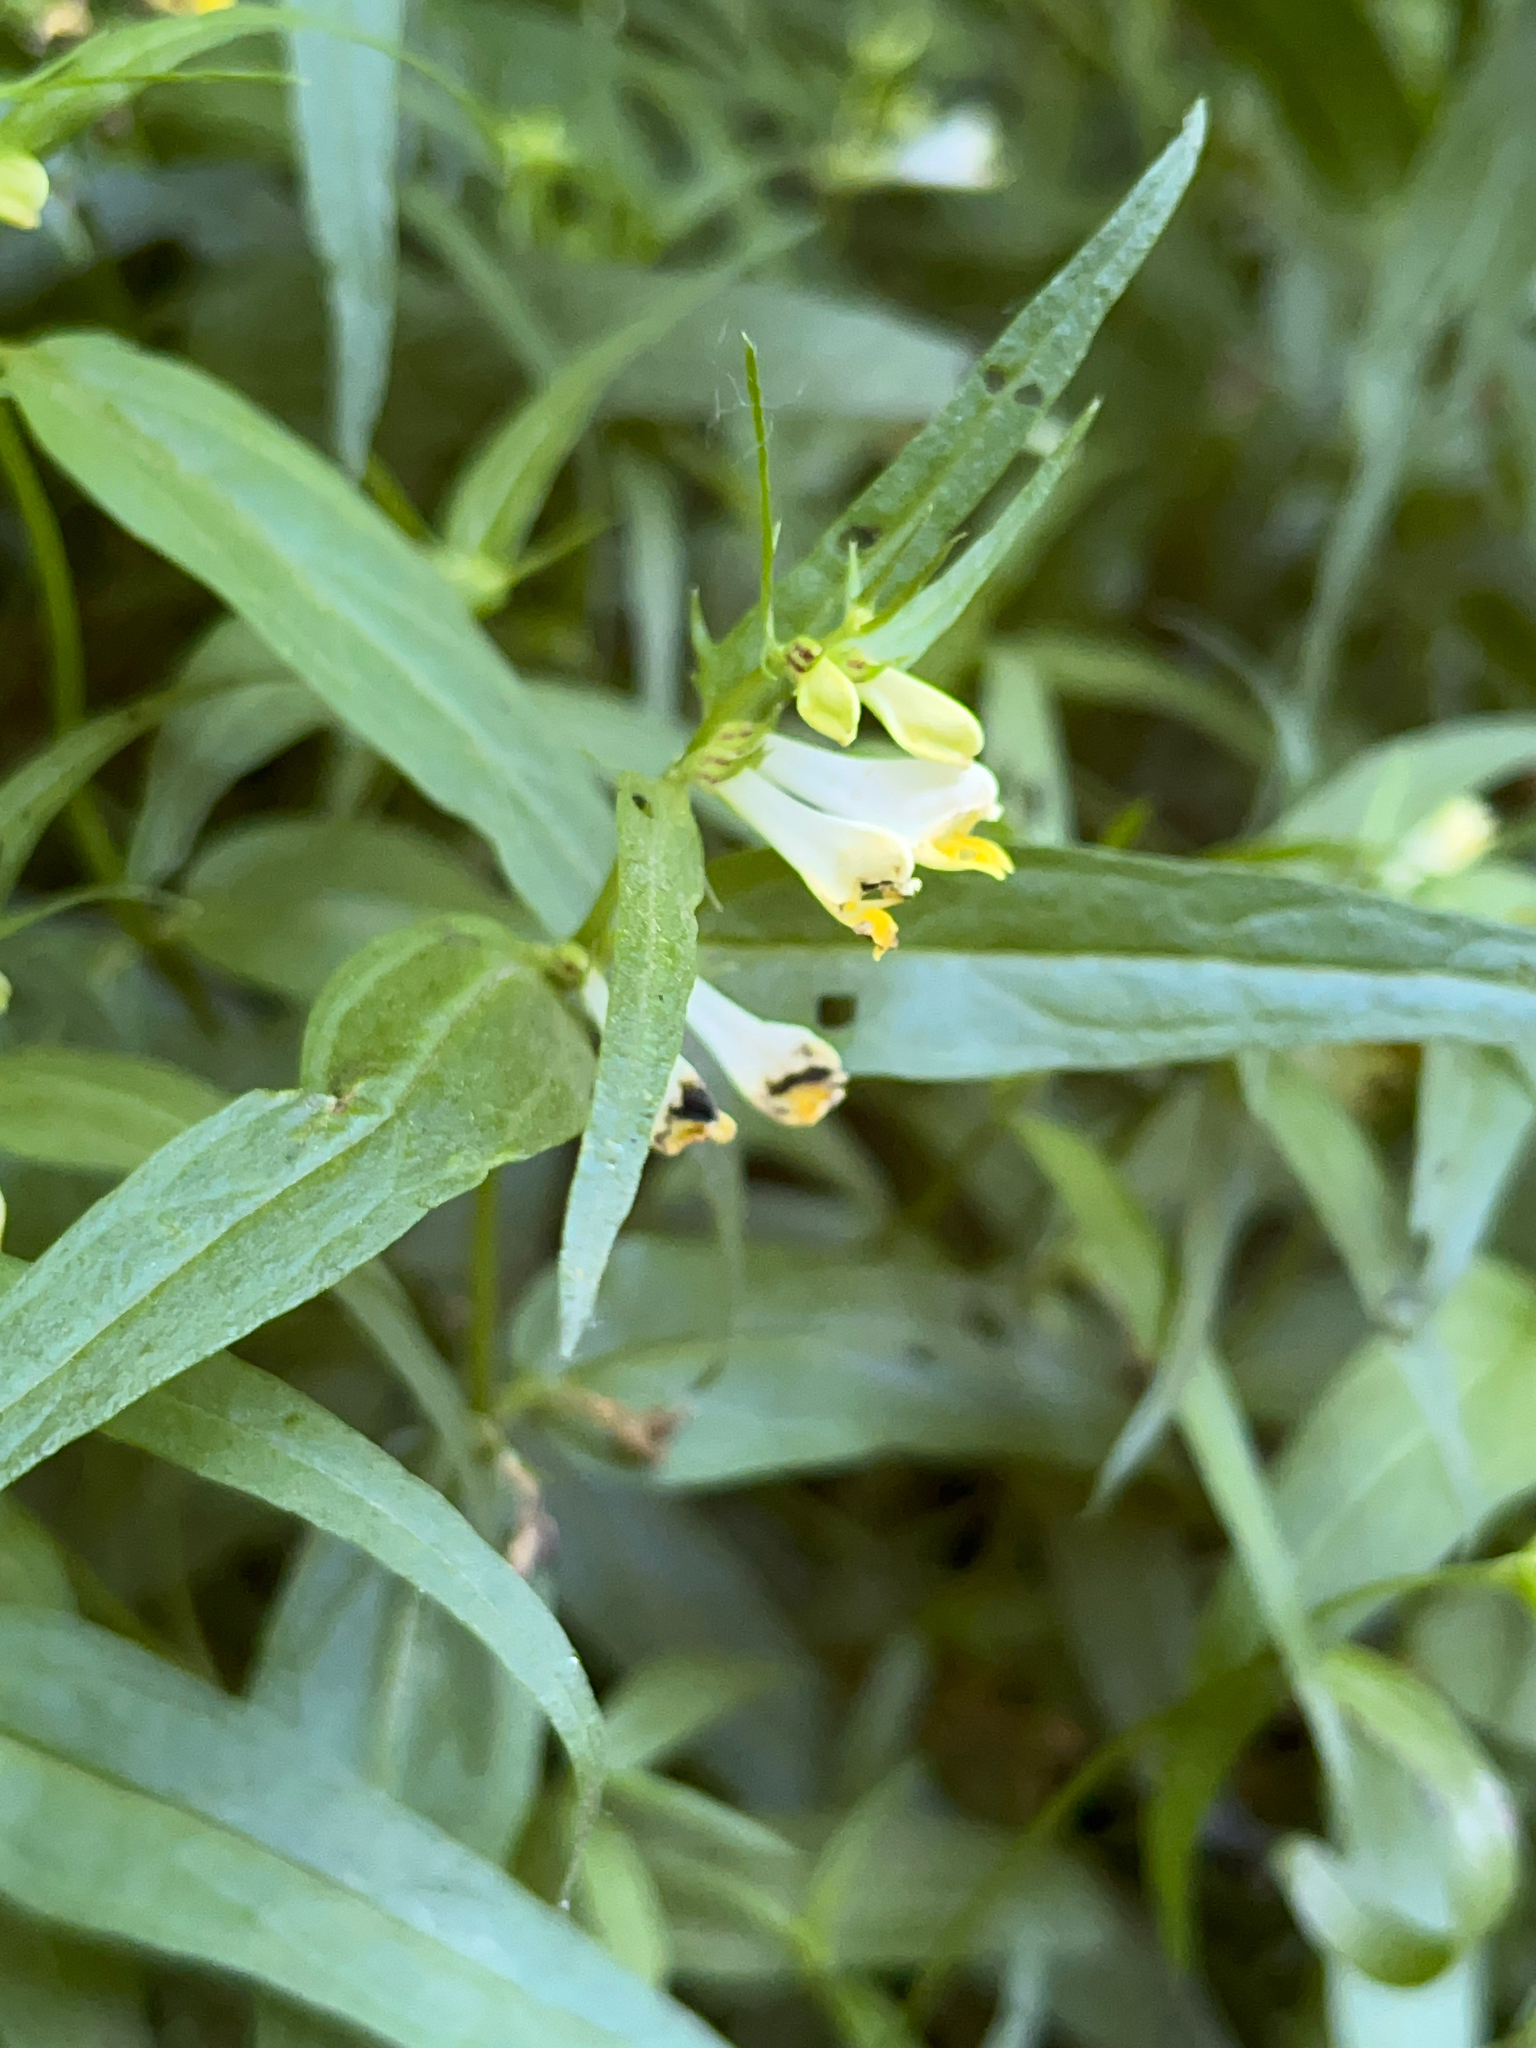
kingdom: Plantae
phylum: Tracheophyta
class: Magnoliopsida
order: Lamiales
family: Orobanchaceae
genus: Melampyrum
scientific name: Melampyrum pratense
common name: Common cow-wheat
